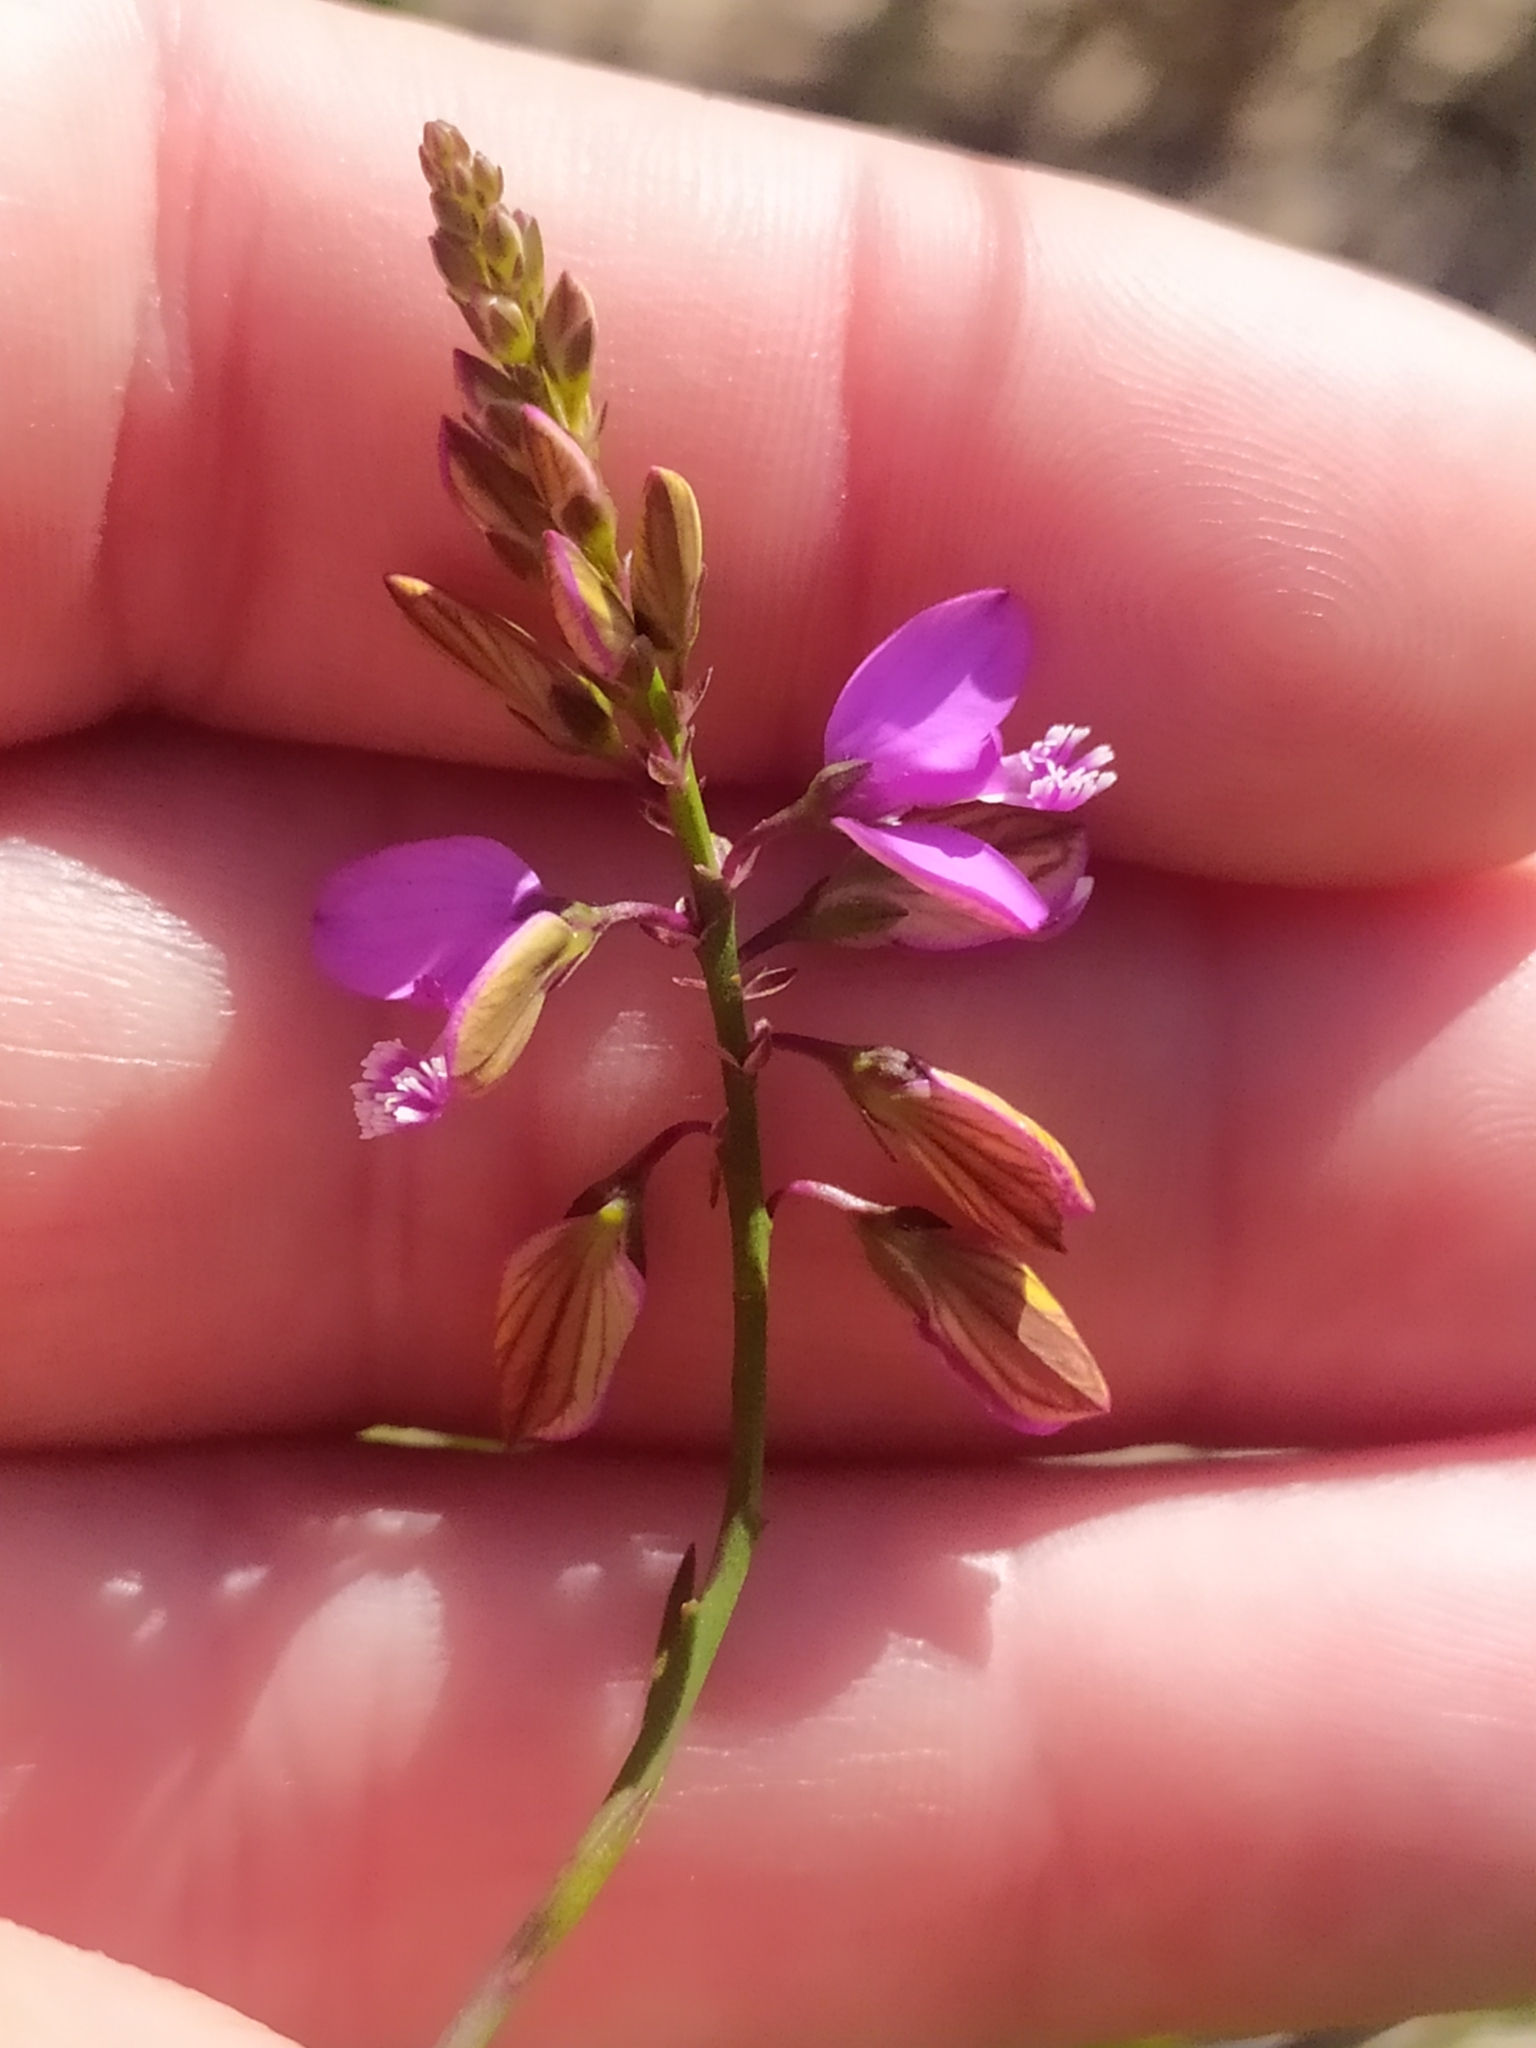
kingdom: Plantae
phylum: Tracheophyta
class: Magnoliopsida
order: Fabales
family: Polygalaceae
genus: Polygala
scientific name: Polygala garcini
